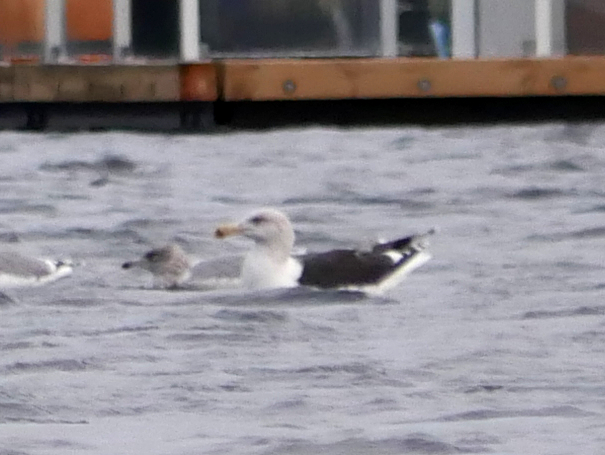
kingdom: Animalia
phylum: Chordata
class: Aves
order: Charadriiformes
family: Laridae
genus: Larus
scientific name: Larus marinus
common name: Great black-backed gull
